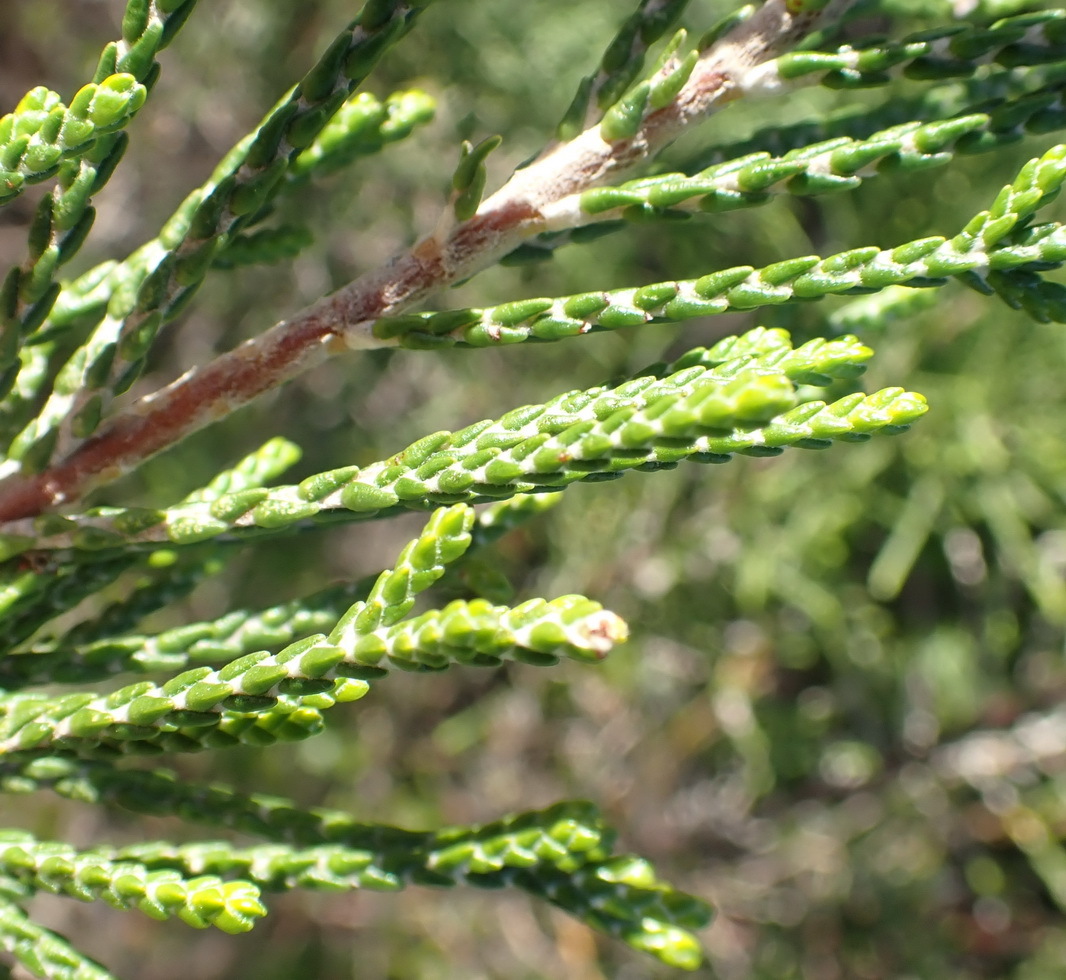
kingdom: Plantae
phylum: Tracheophyta
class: Magnoliopsida
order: Malvales
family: Thymelaeaceae
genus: Passerina
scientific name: Passerina rigida
